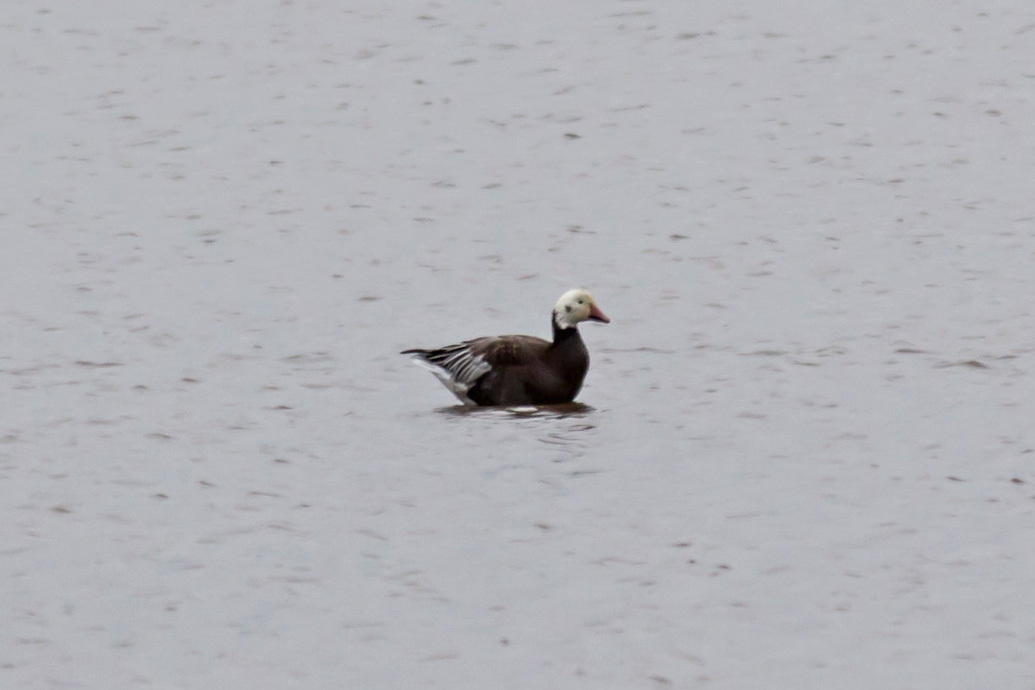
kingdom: Animalia
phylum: Chordata
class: Aves
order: Anseriformes
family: Anatidae
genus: Anser
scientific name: Anser caerulescens
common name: Snow goose
